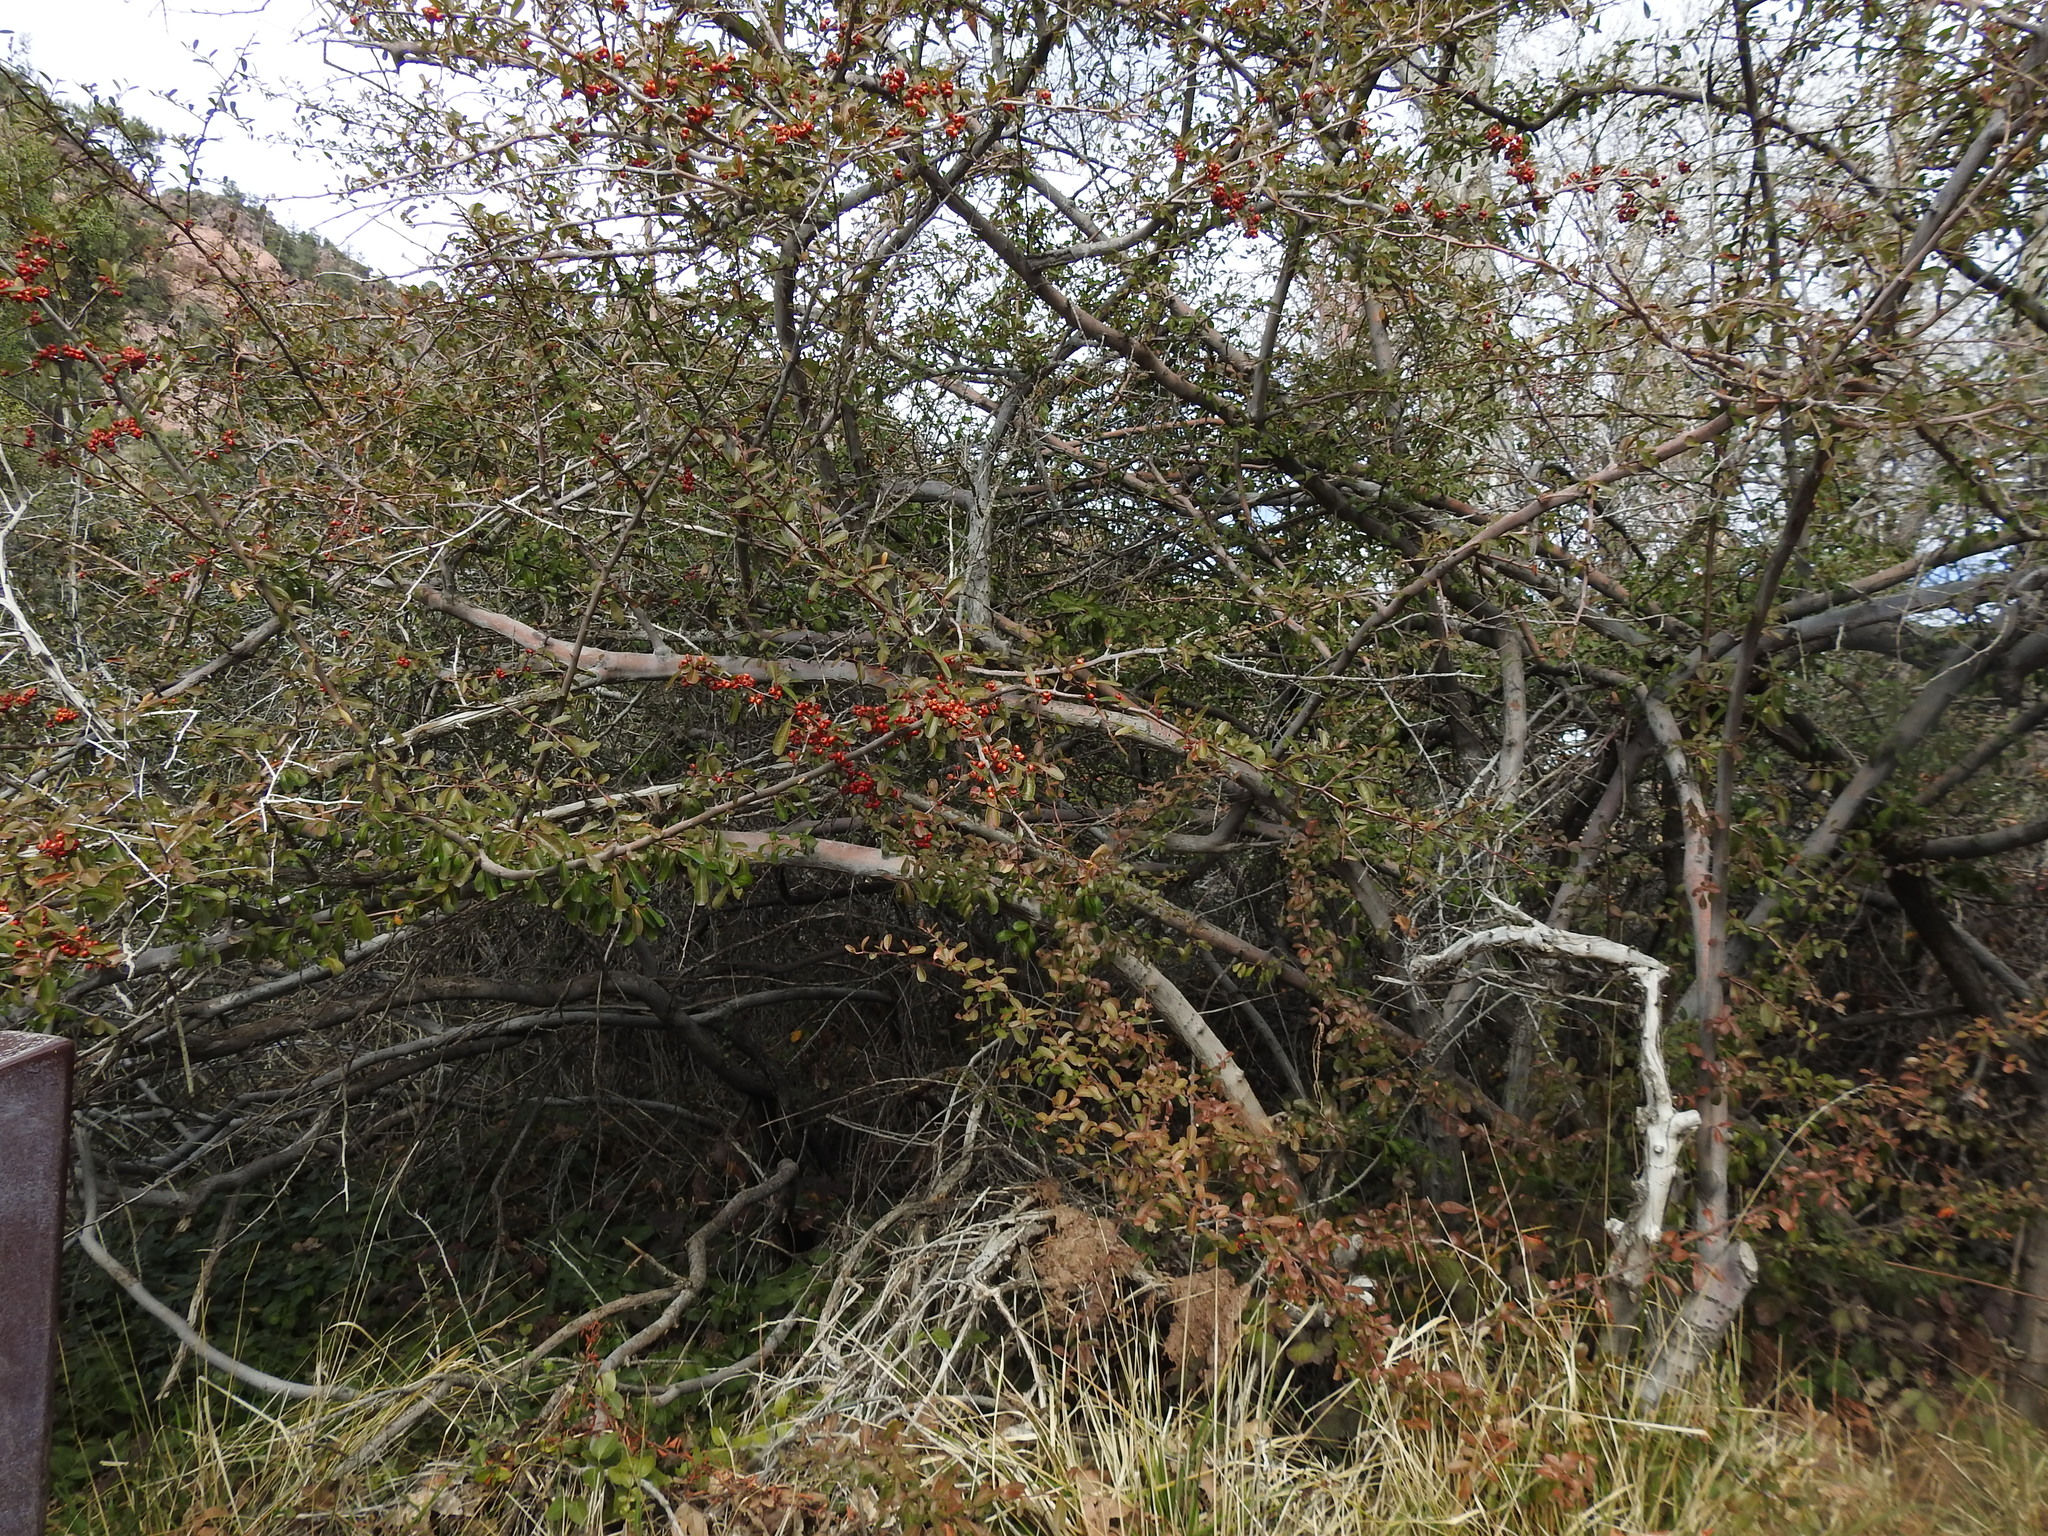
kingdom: Plantae
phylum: Tracheophyta
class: Magnoliopsida
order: Rosales
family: Rosaceae
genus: Pyracantha
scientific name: Pyracantha coccinea
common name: Firethorn
